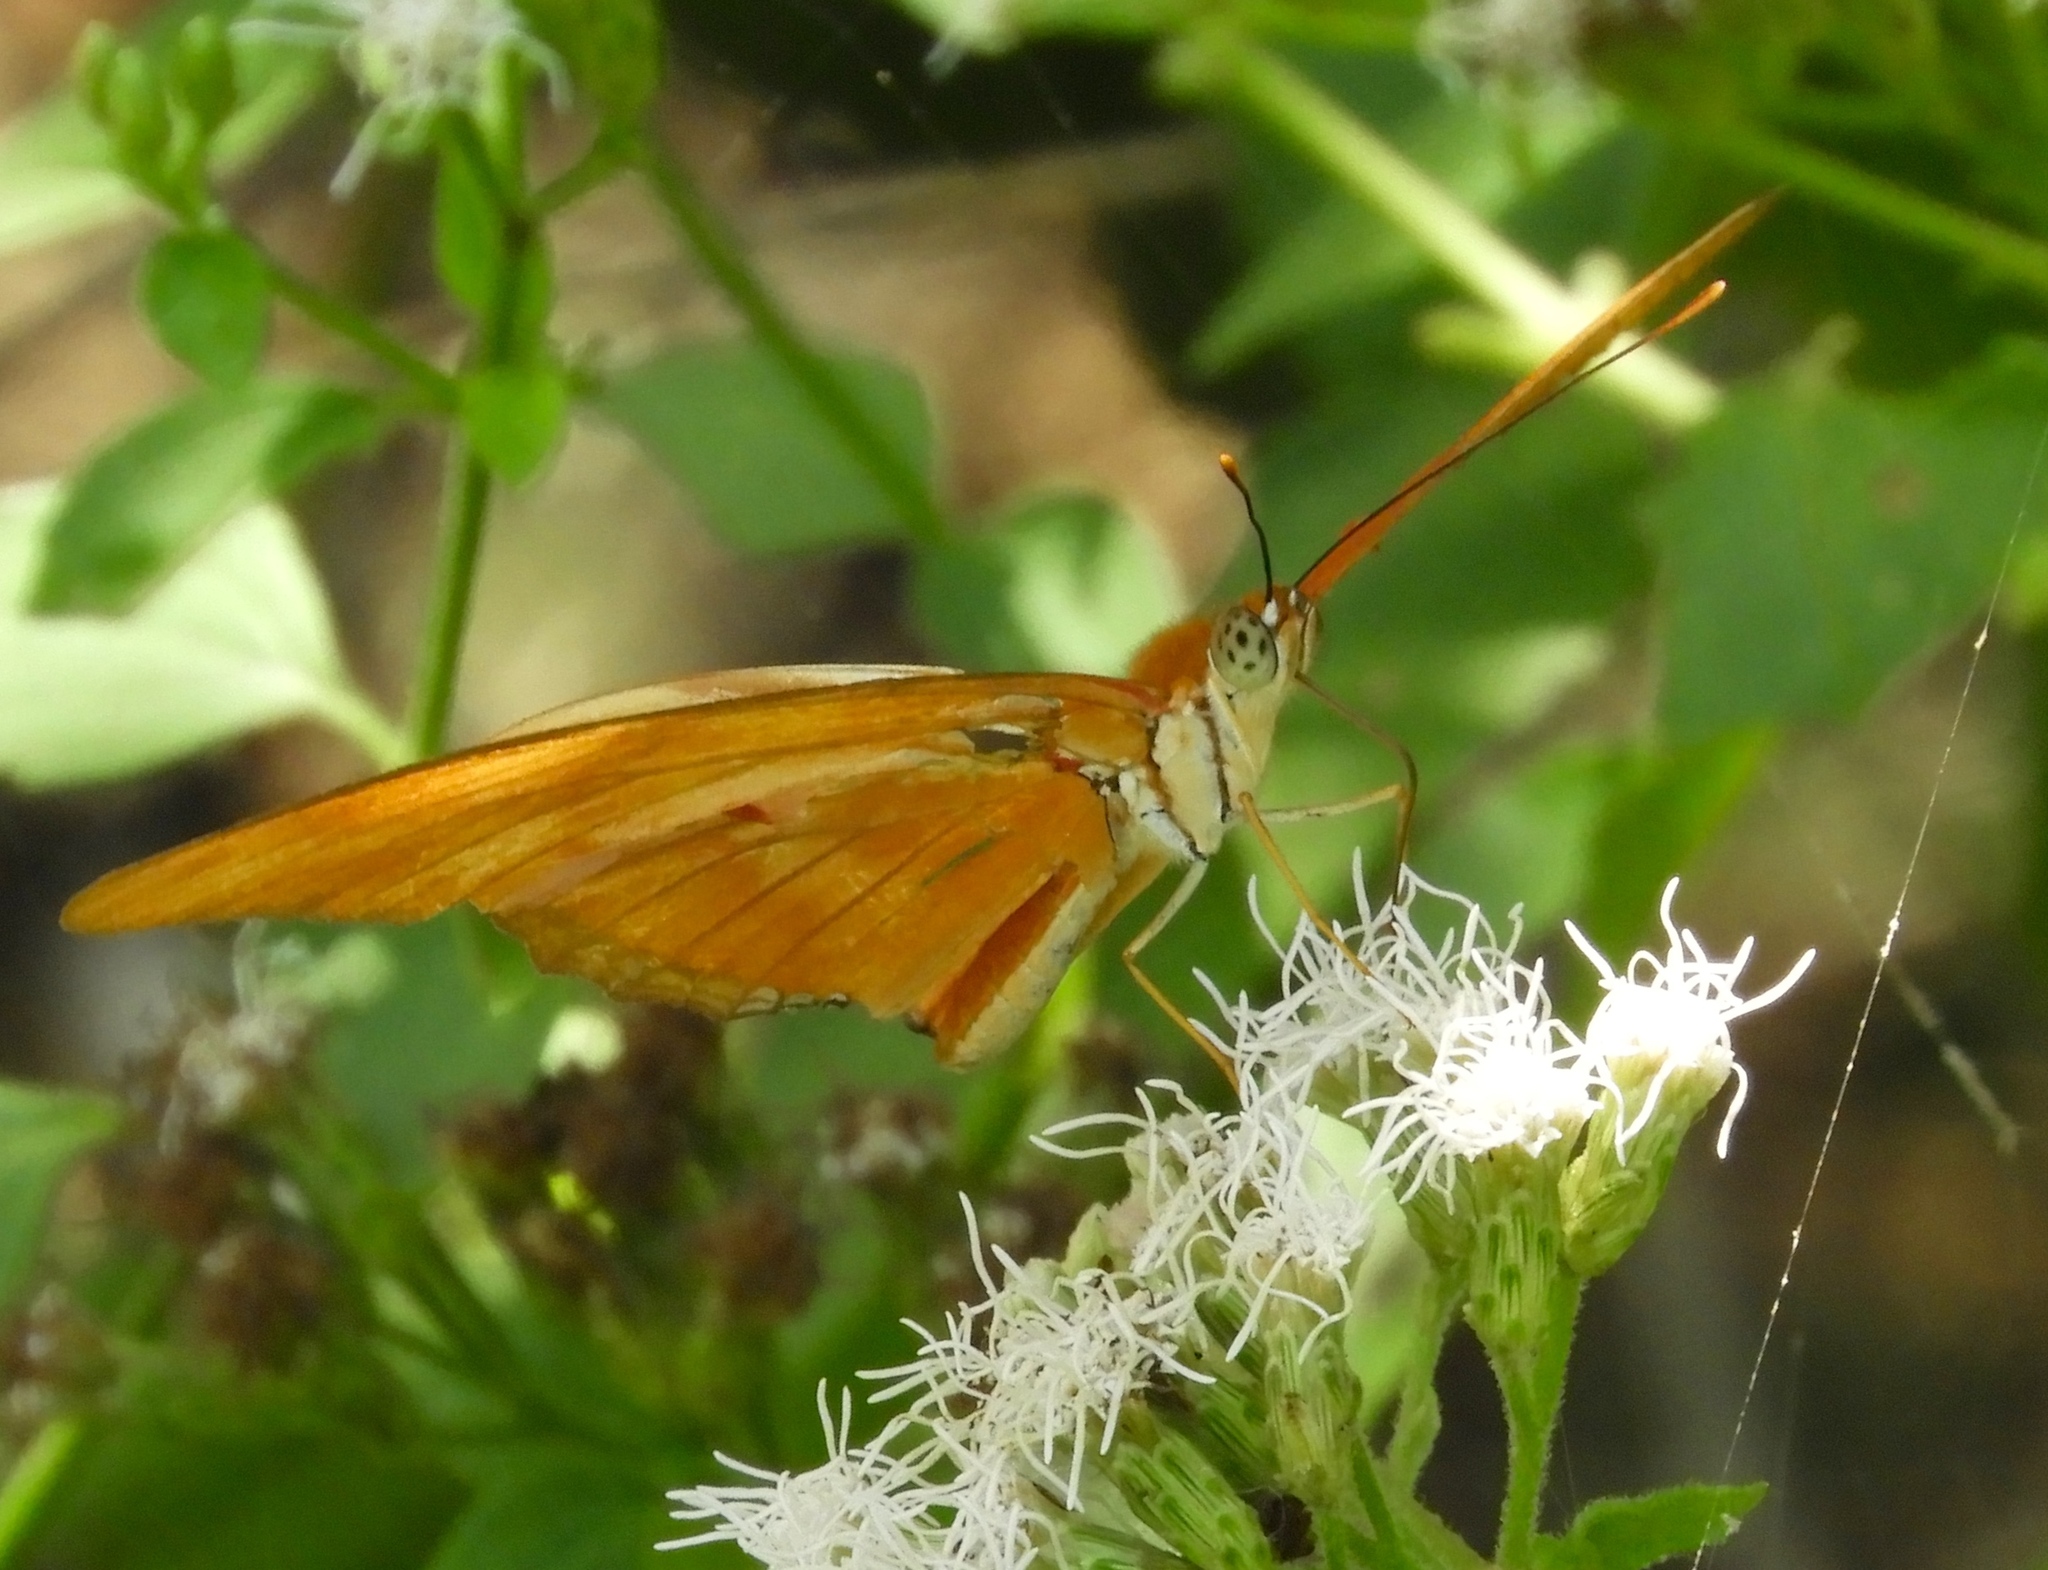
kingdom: Animalia
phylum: Arthropoda
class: Insecta
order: Lepidoptera
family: Nymphalidae
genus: Dryas
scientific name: Dryas iulia
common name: Flambeau
